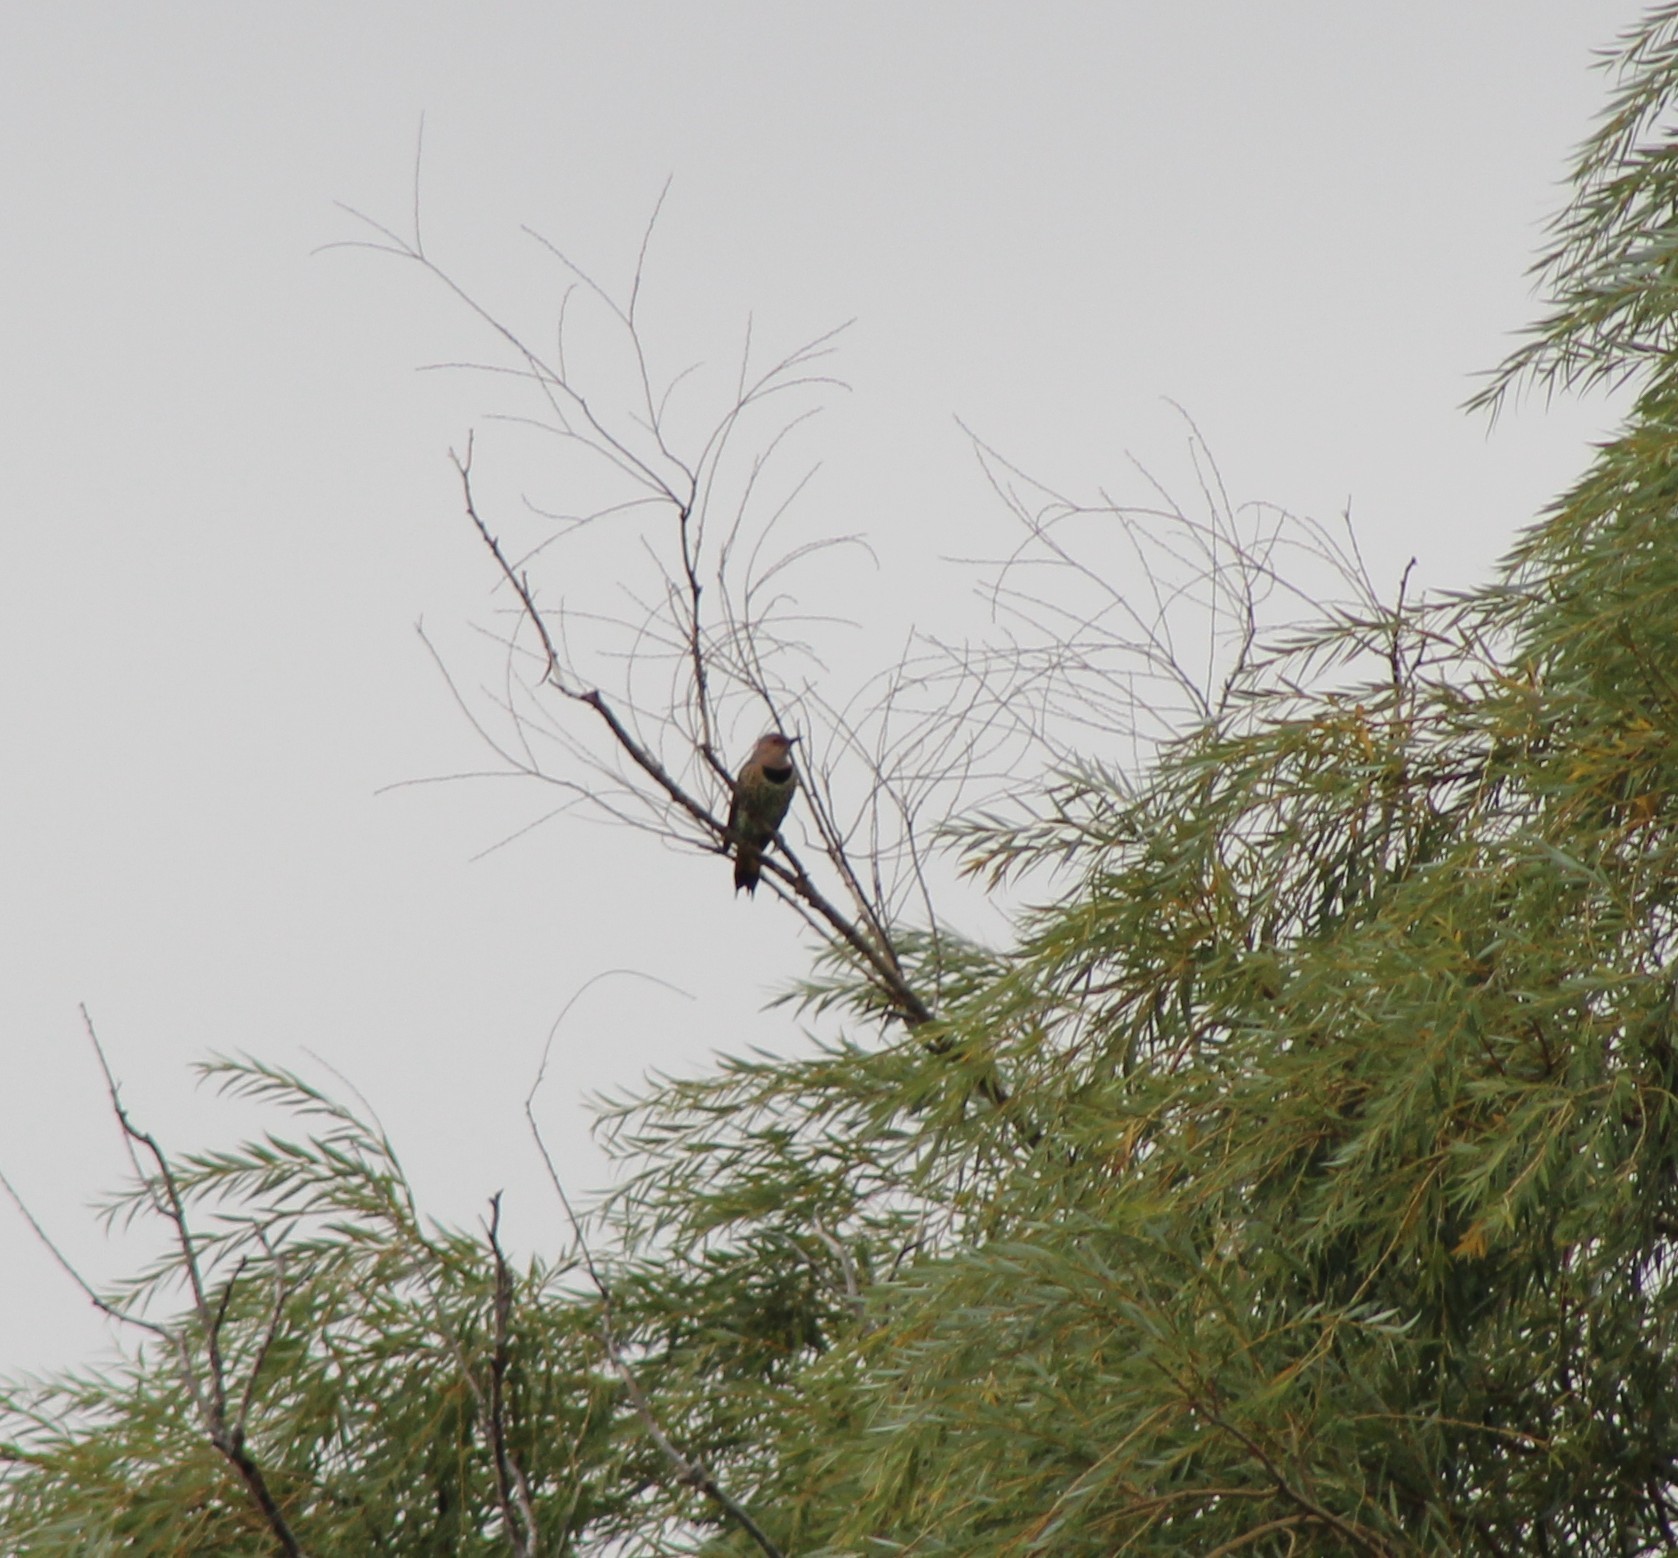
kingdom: Animalia
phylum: Chordata
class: Aves
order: Piciformes
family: Picidae
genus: Colaptes
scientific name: Colaptes auratus
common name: Northern flicker
